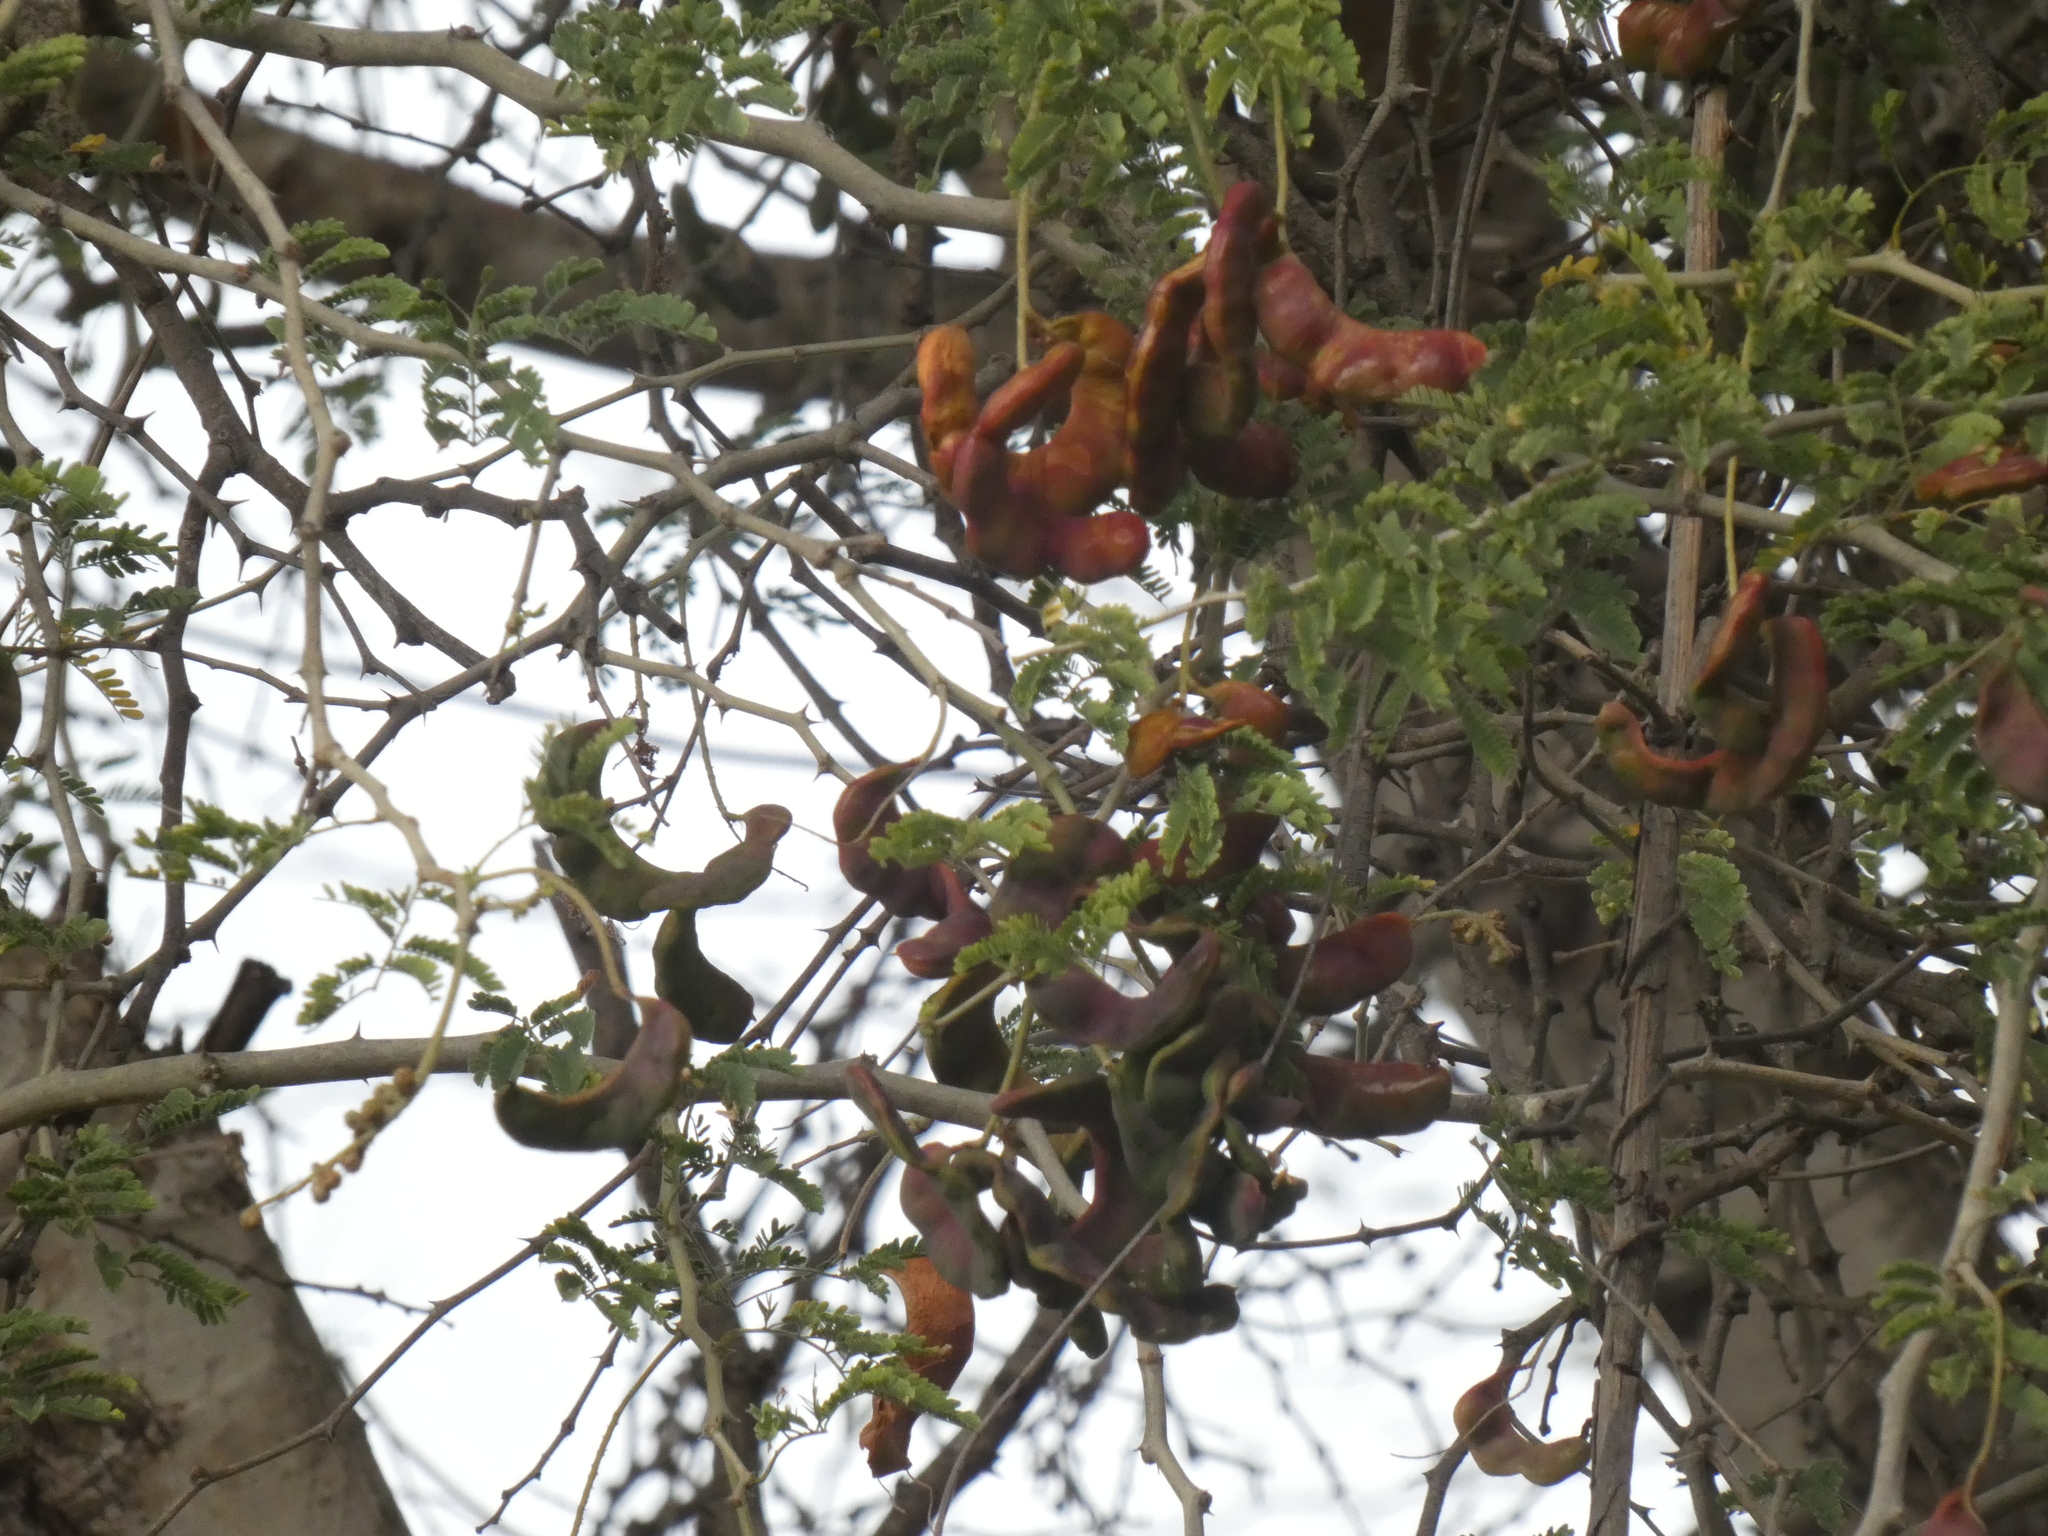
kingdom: Plantae
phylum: Tracheophyta
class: Magnoliopsida
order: Fabales
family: Fabaceae
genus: Faidherbia
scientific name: Faidherbia albida
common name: Anatree
